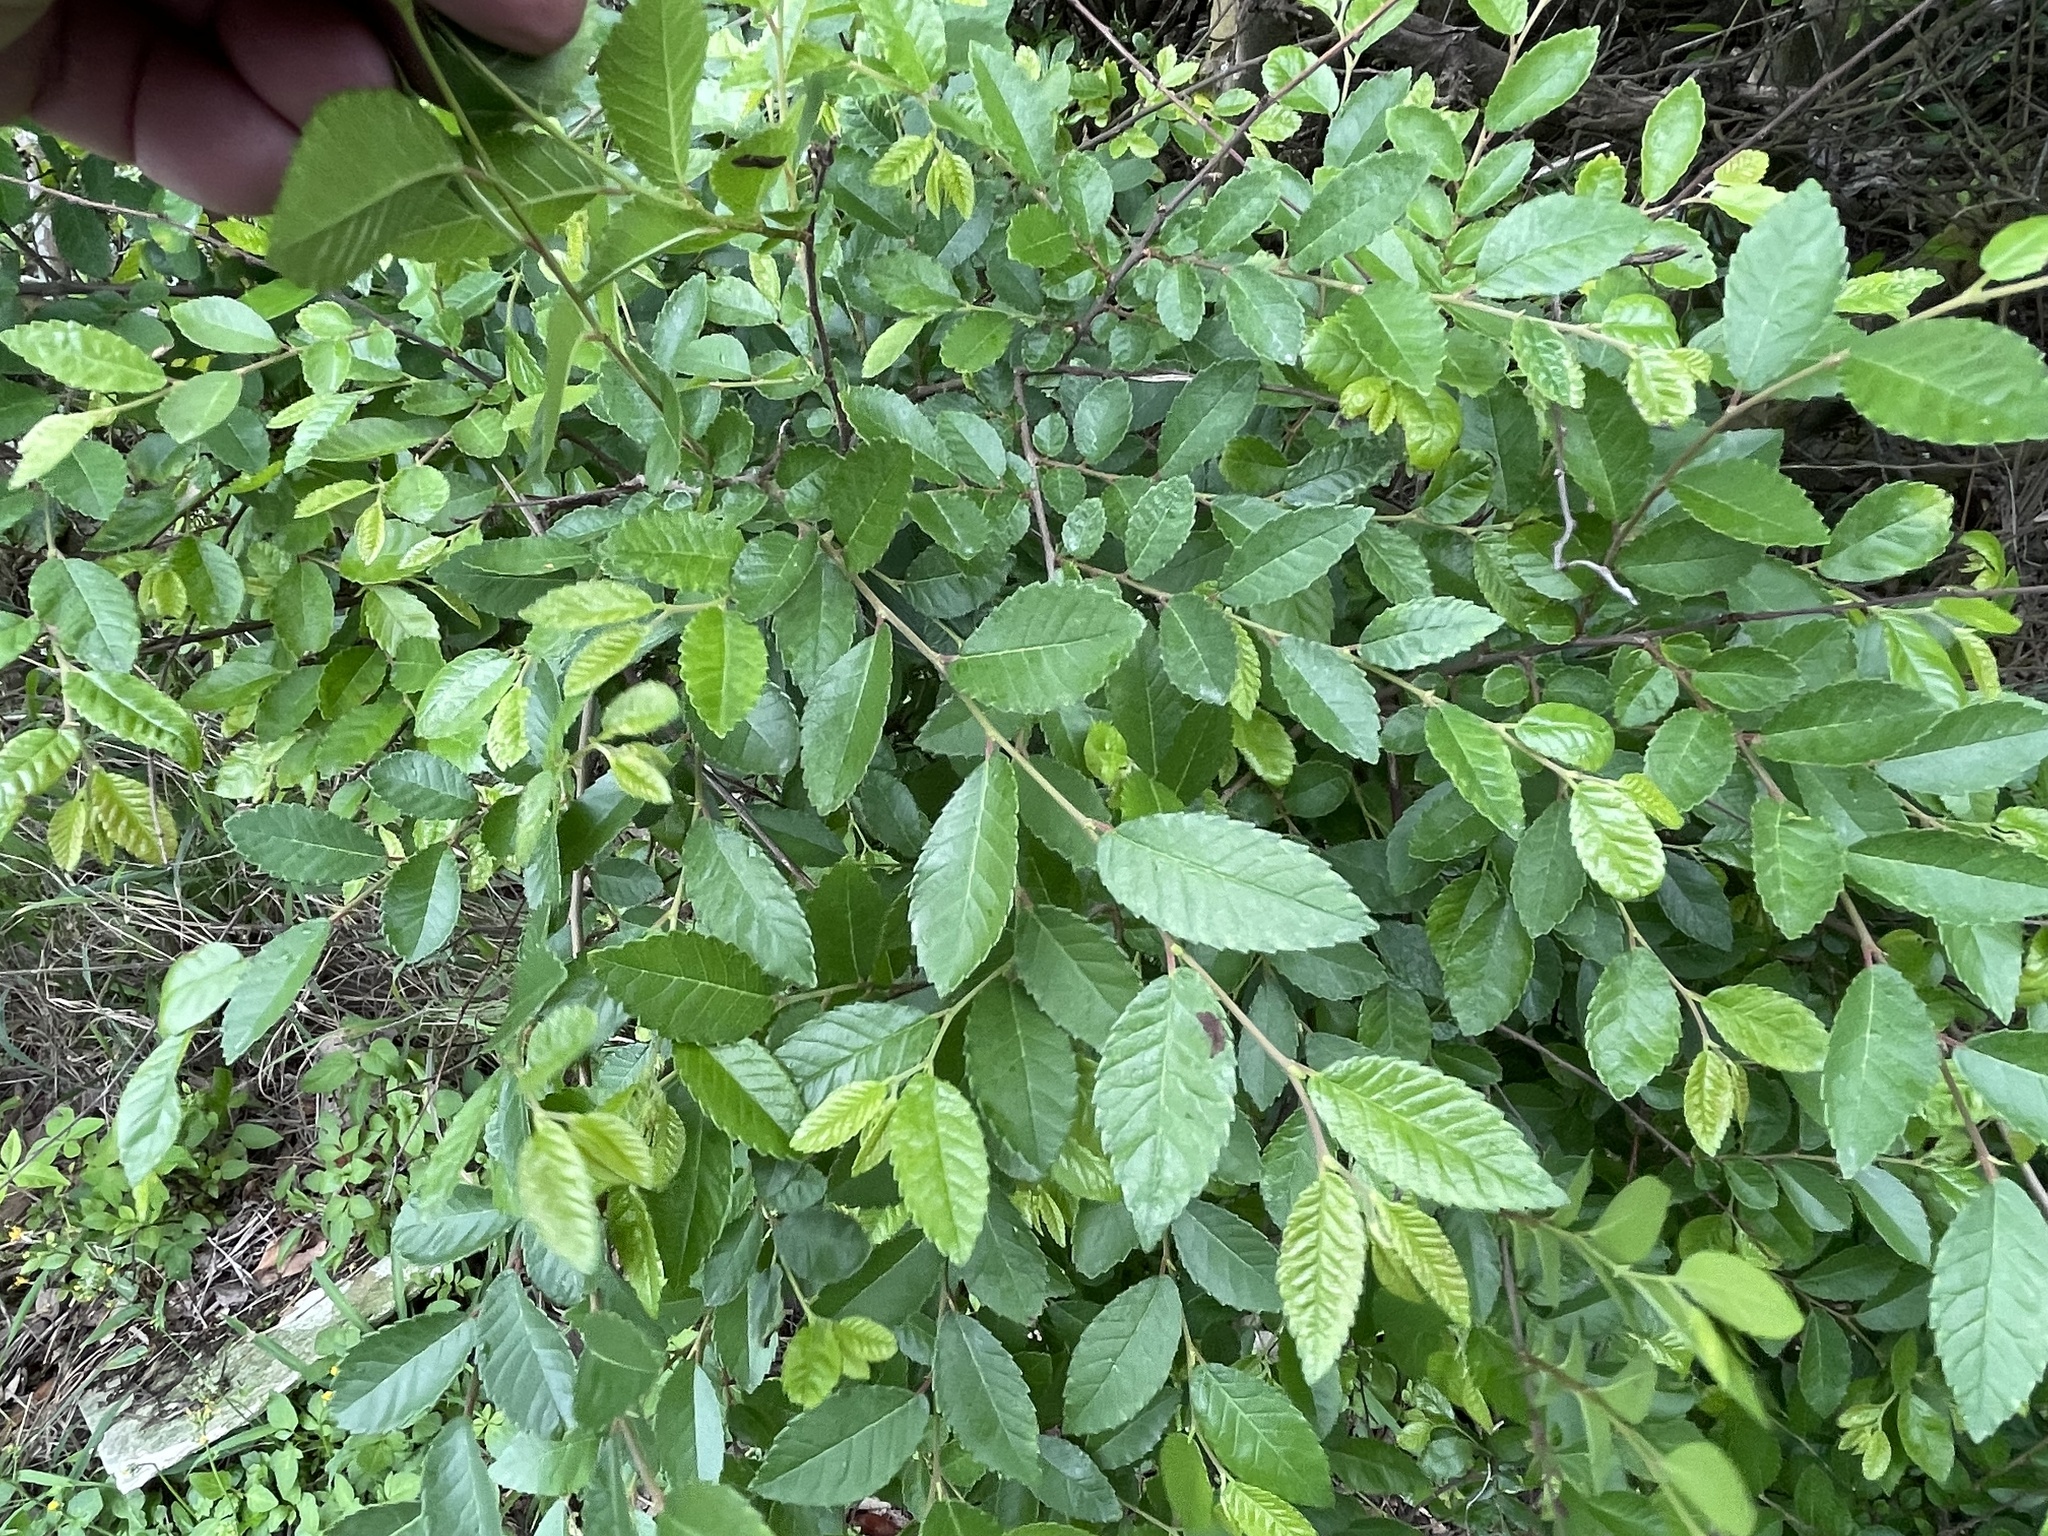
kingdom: Plantae
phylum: Tracheophyta
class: Magnoliopsida
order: Rosales
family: Ulmaceae
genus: Ulmus
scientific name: Ulmus parvifolia
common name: Chinese elm
